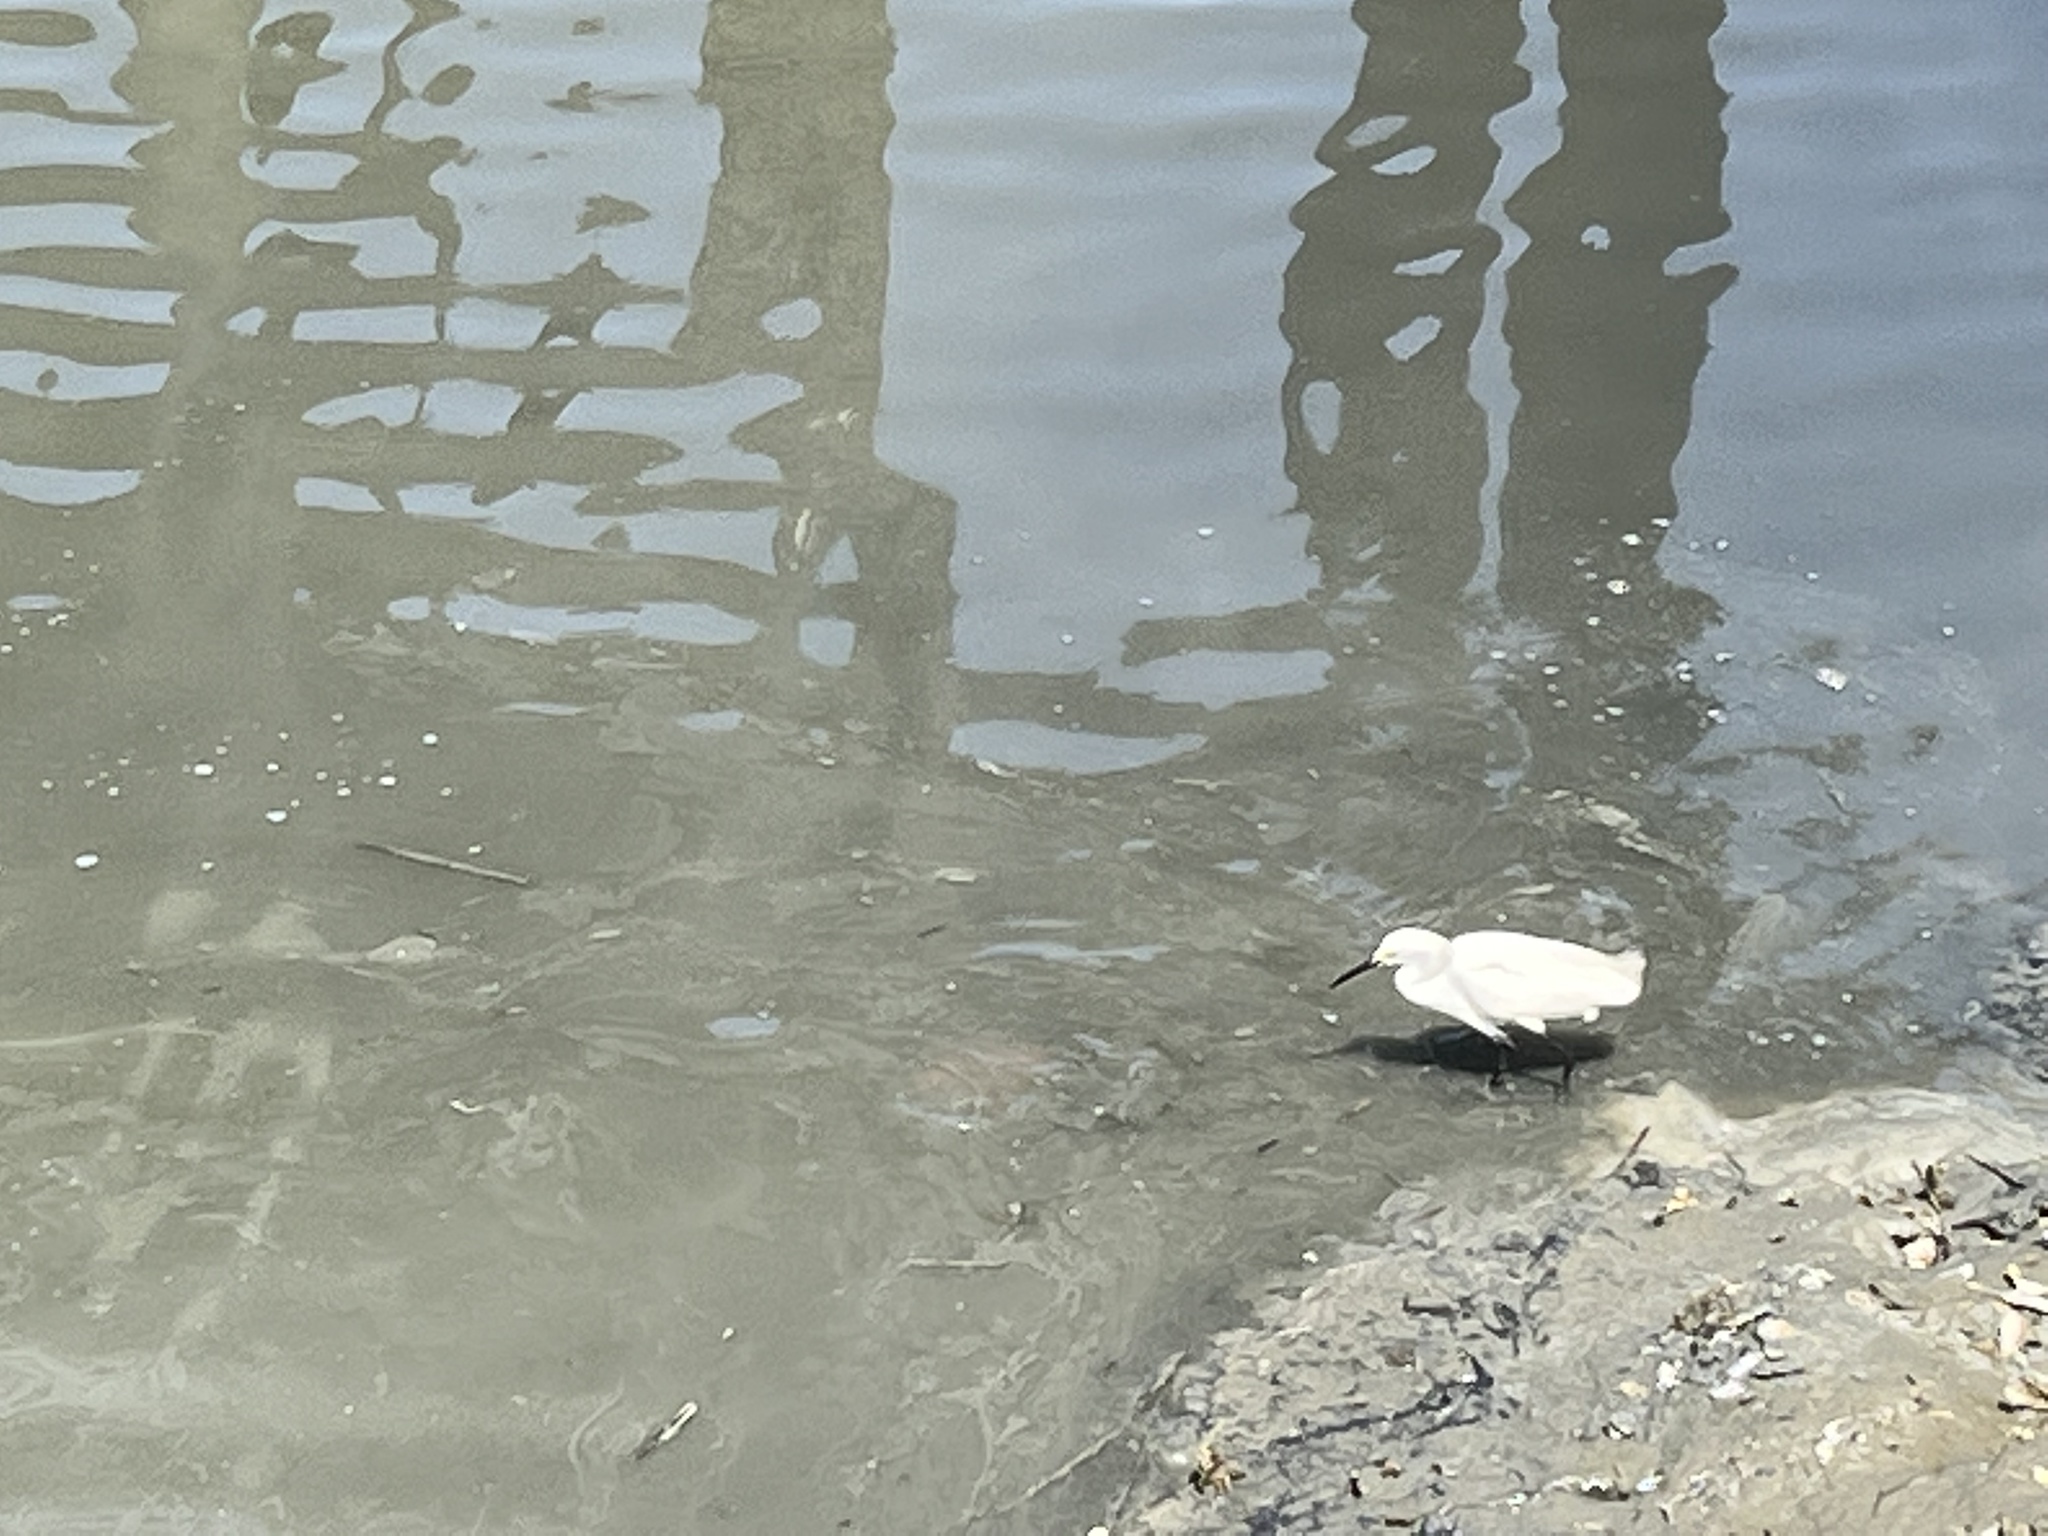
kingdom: Animalia
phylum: Chordata
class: Aves
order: Pelecaniformes
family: Ardeidae
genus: Egretta
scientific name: Egretta thula
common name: Snowy egret
